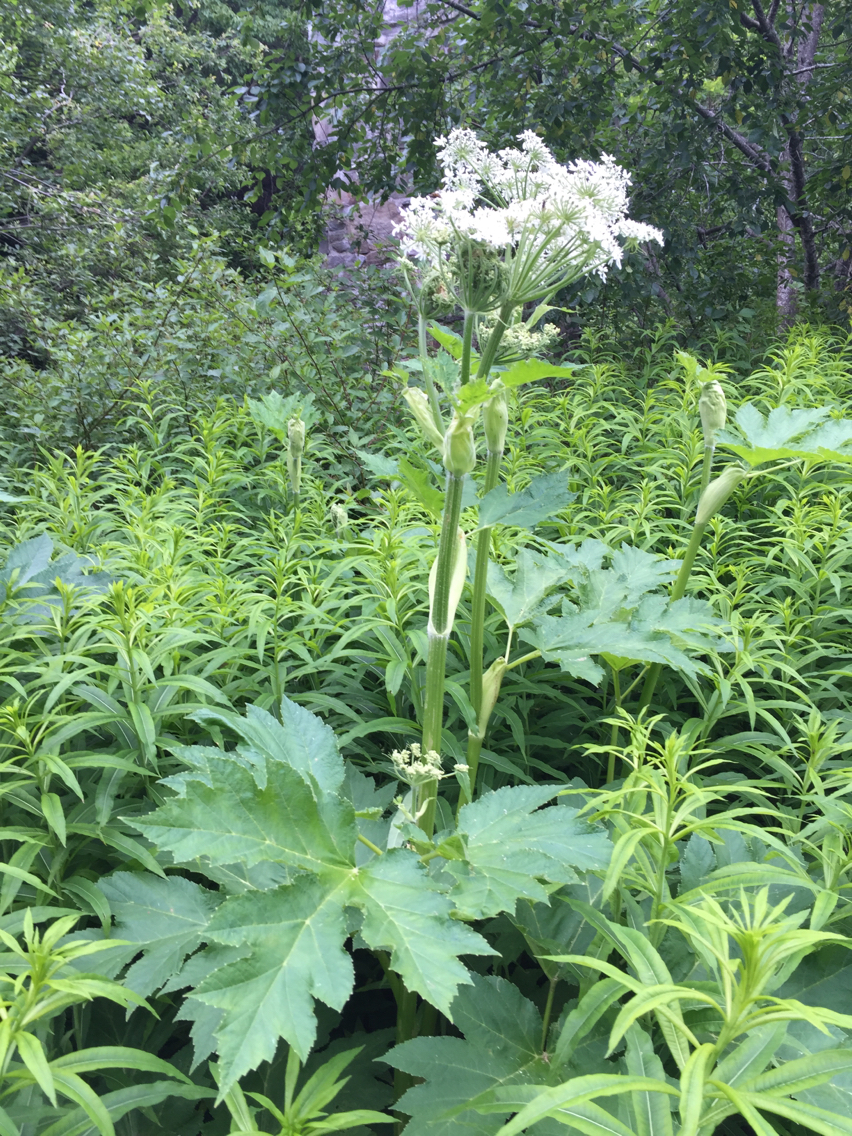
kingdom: Plantae
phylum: Tracheophyta
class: Magnoliopsida
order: Apiales
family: Apiaceae
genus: Heracleum
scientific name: Heracleum maximum
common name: American cow parsnip
